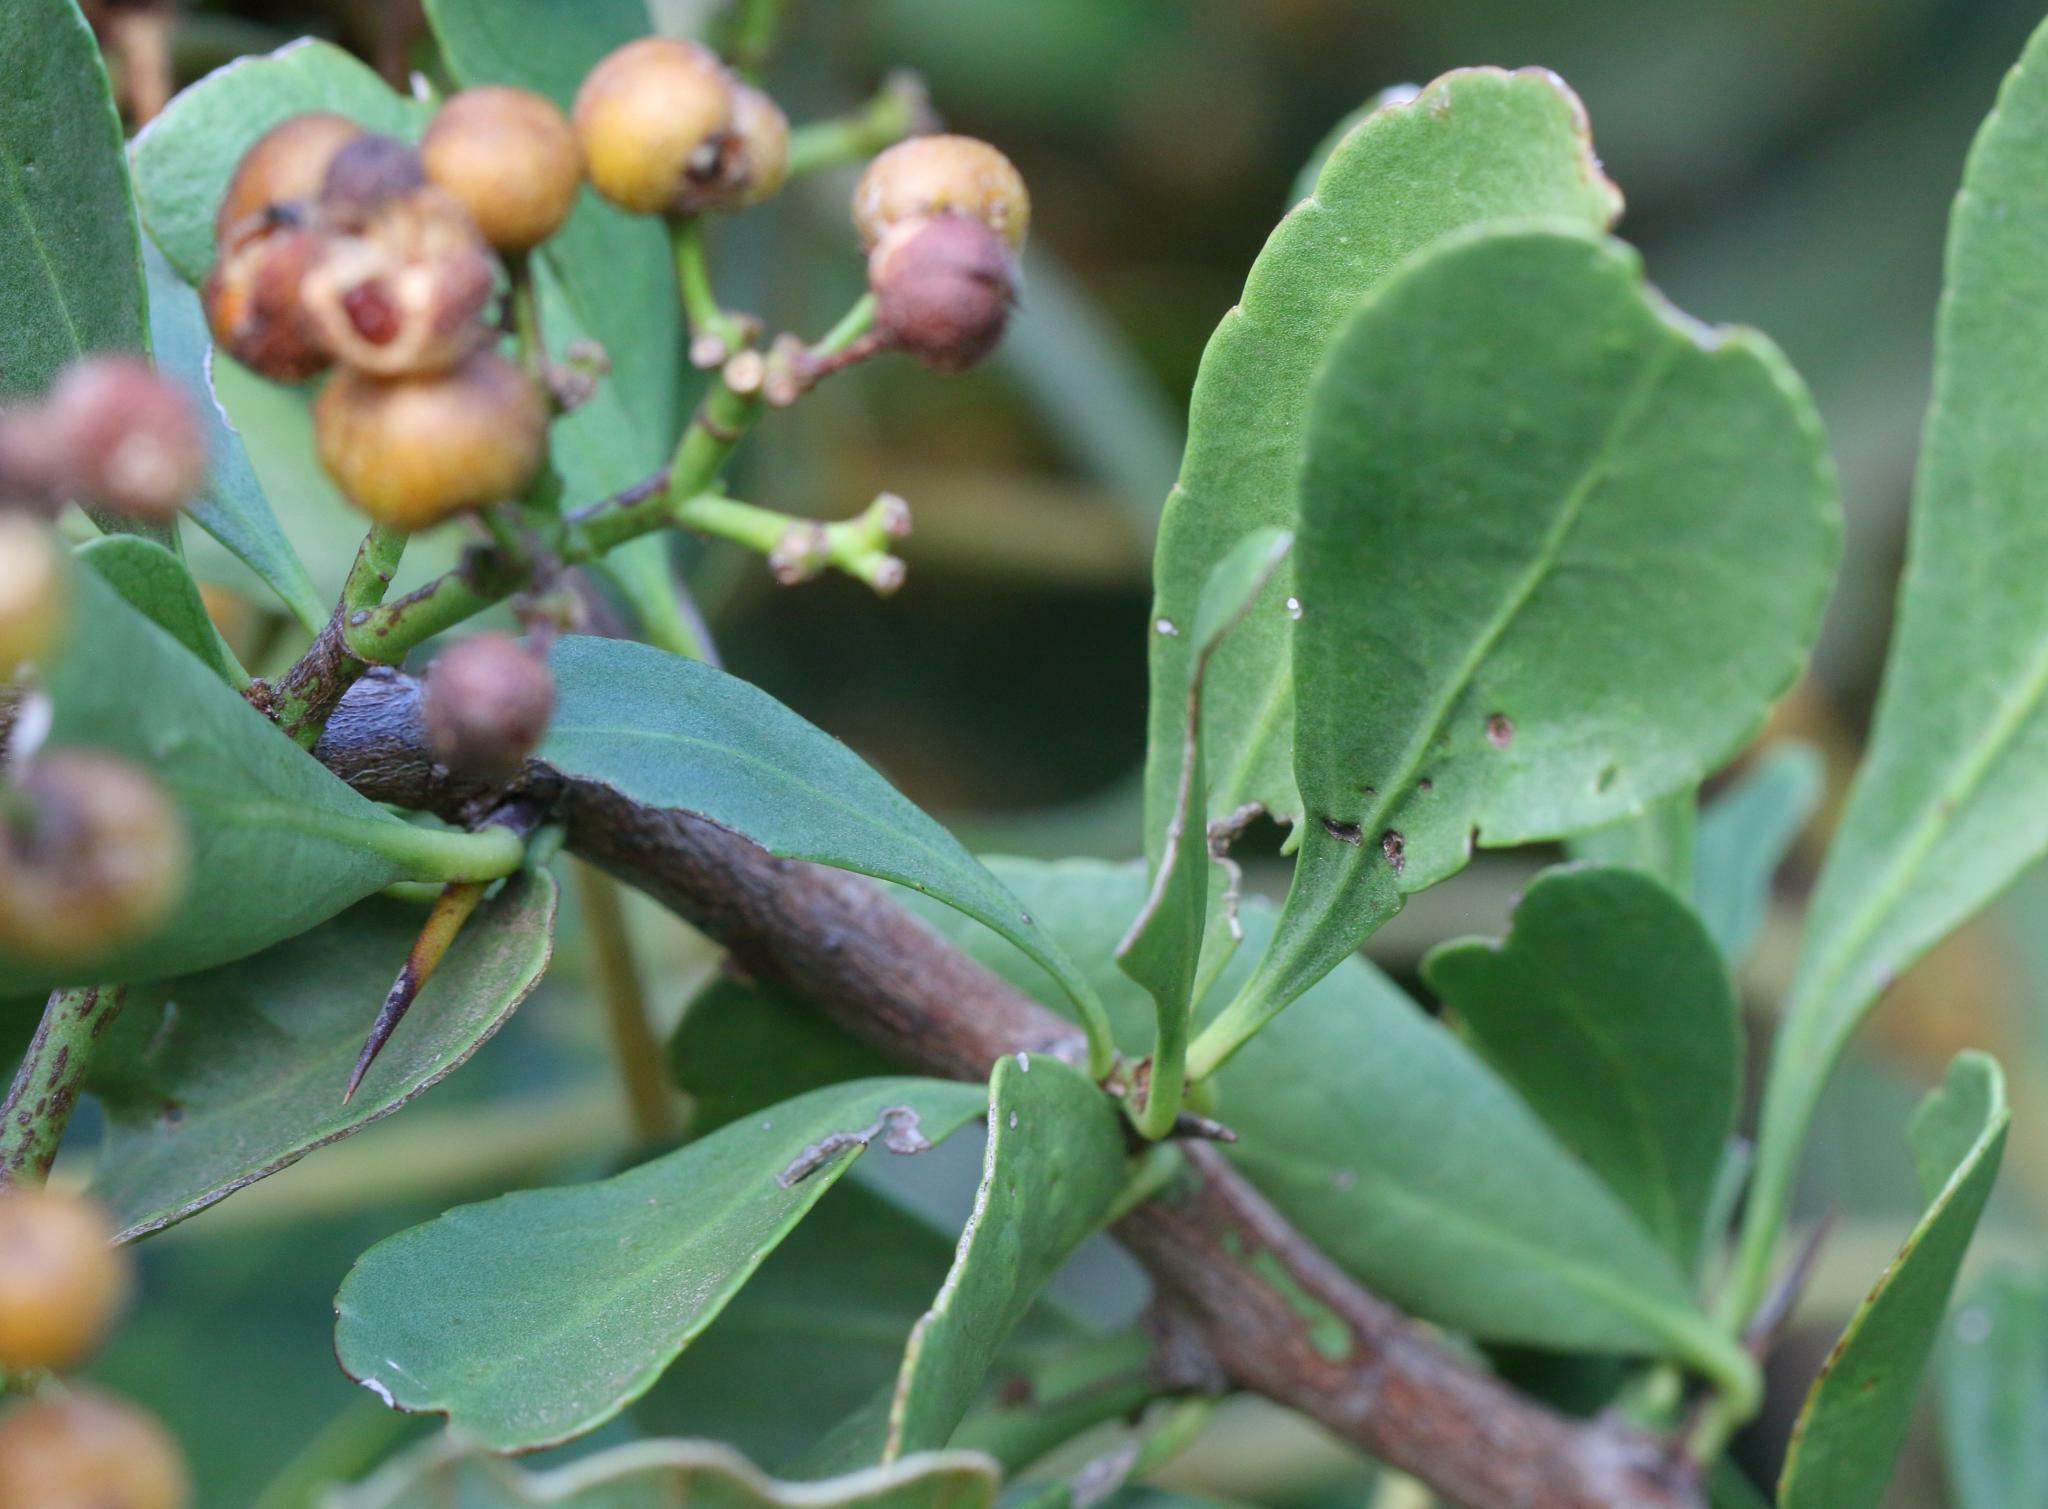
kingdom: Plantae
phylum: Tracheophyta
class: Magnoliopsida
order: Celastrales
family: Celastraceae
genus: Gymnosporia
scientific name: Gymnosporia buxifolia
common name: Common spike-thorn
